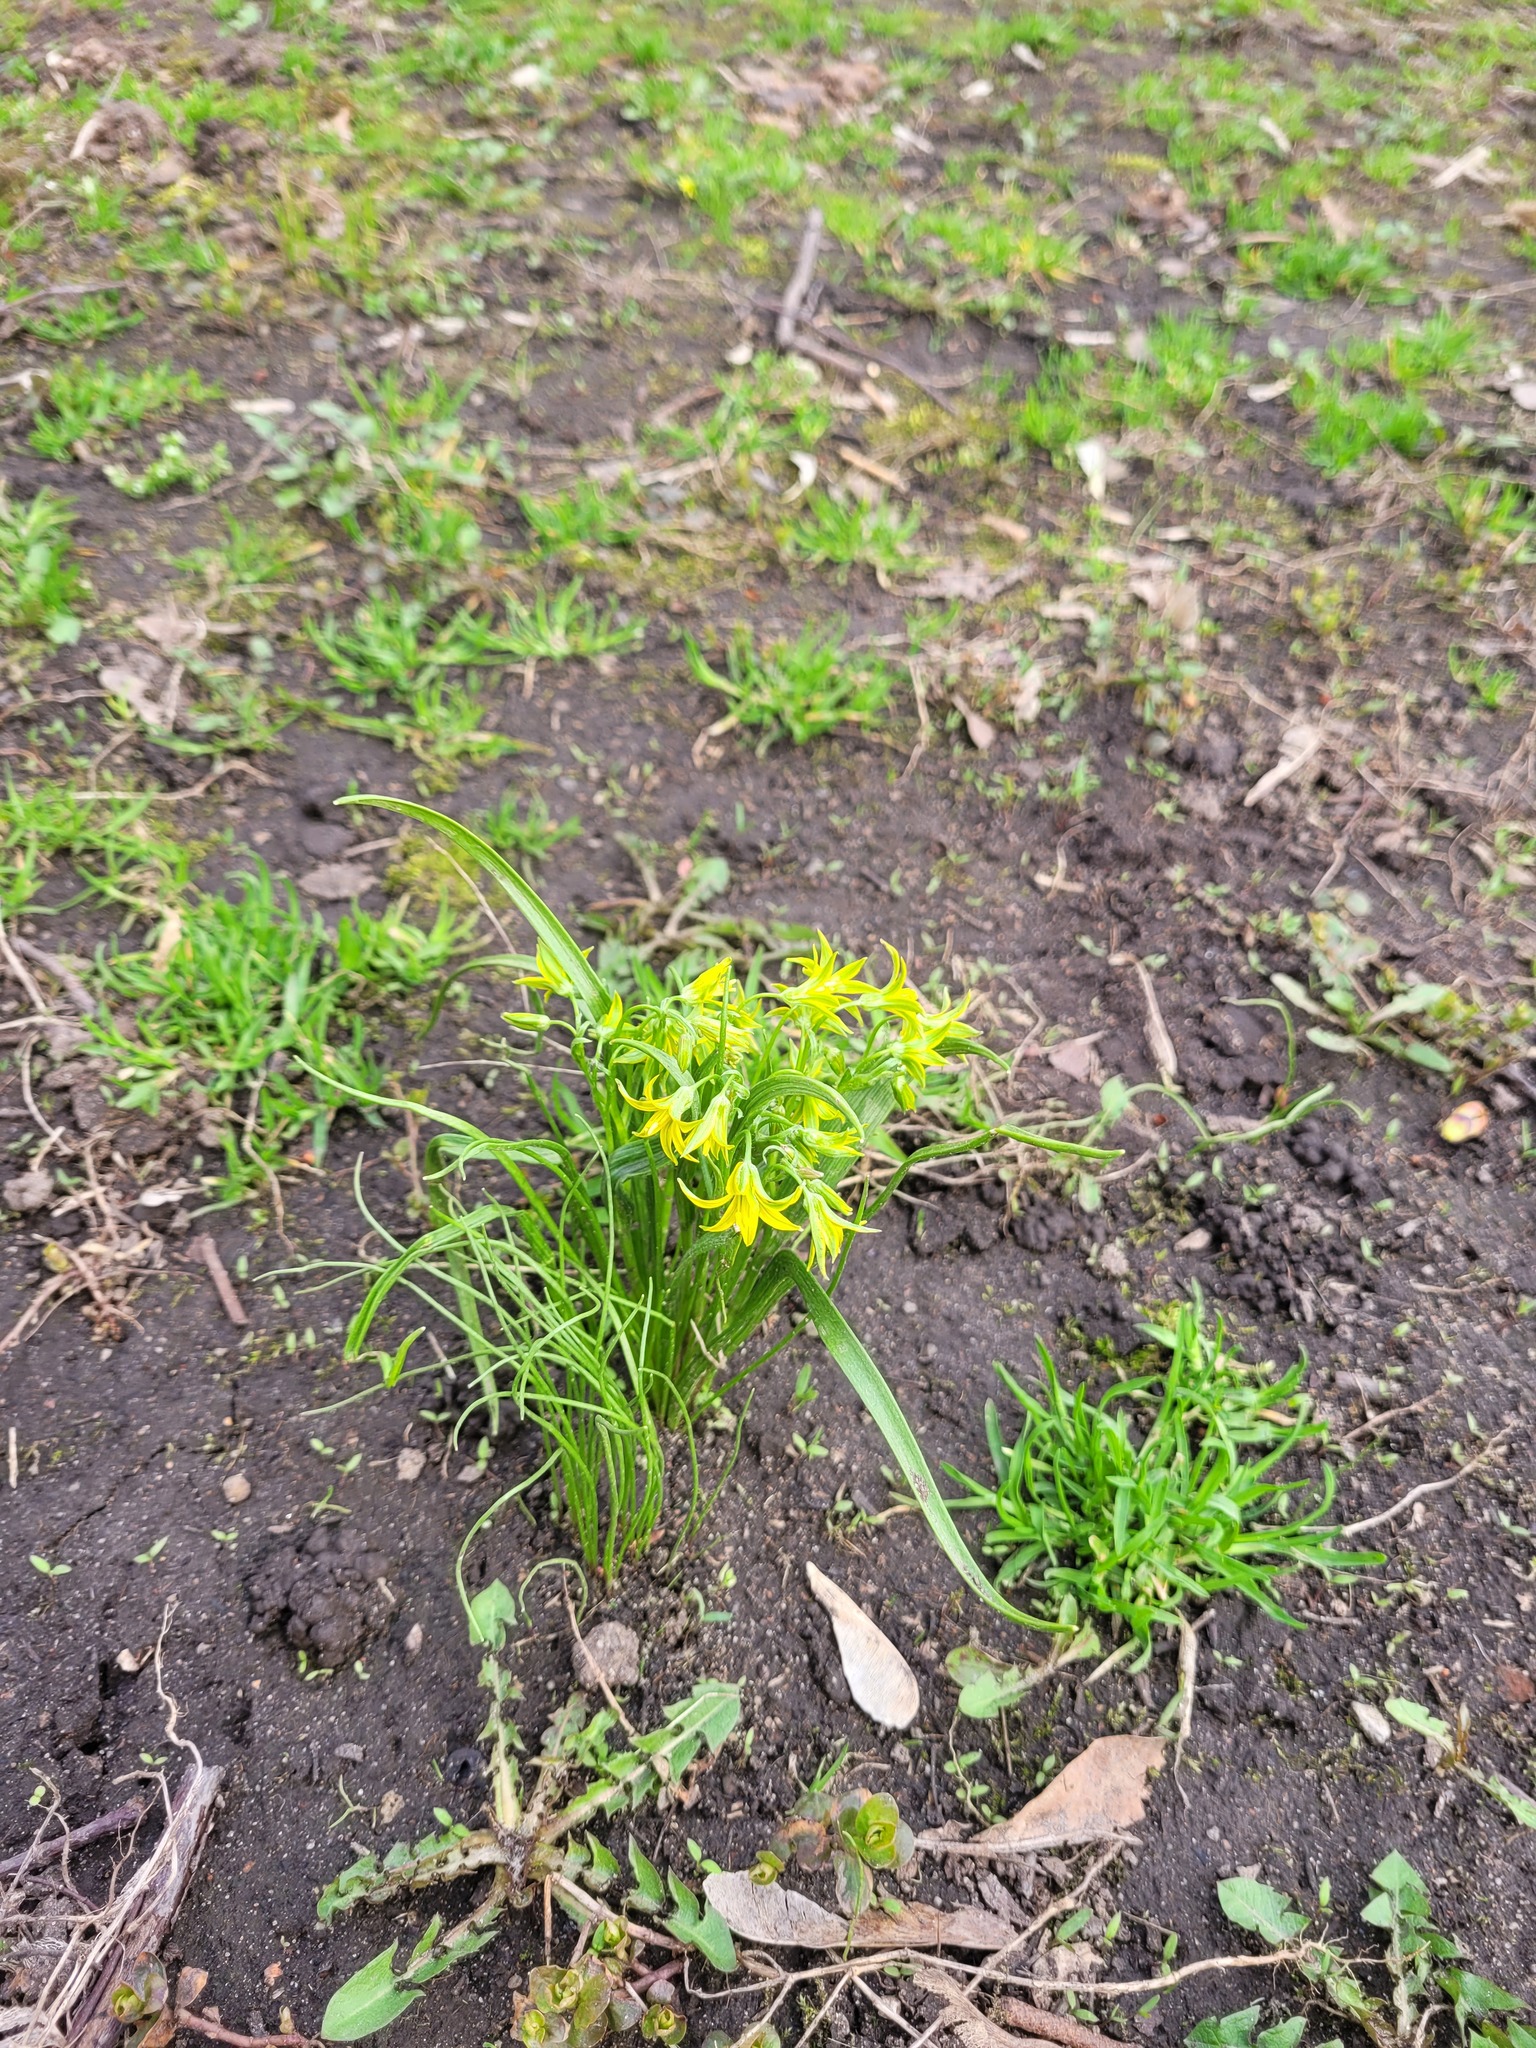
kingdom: Plantae
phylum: Tracheophyta
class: Liliopsida
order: Liliales
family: Liliaceae
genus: Gagea
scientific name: Gagea minima
